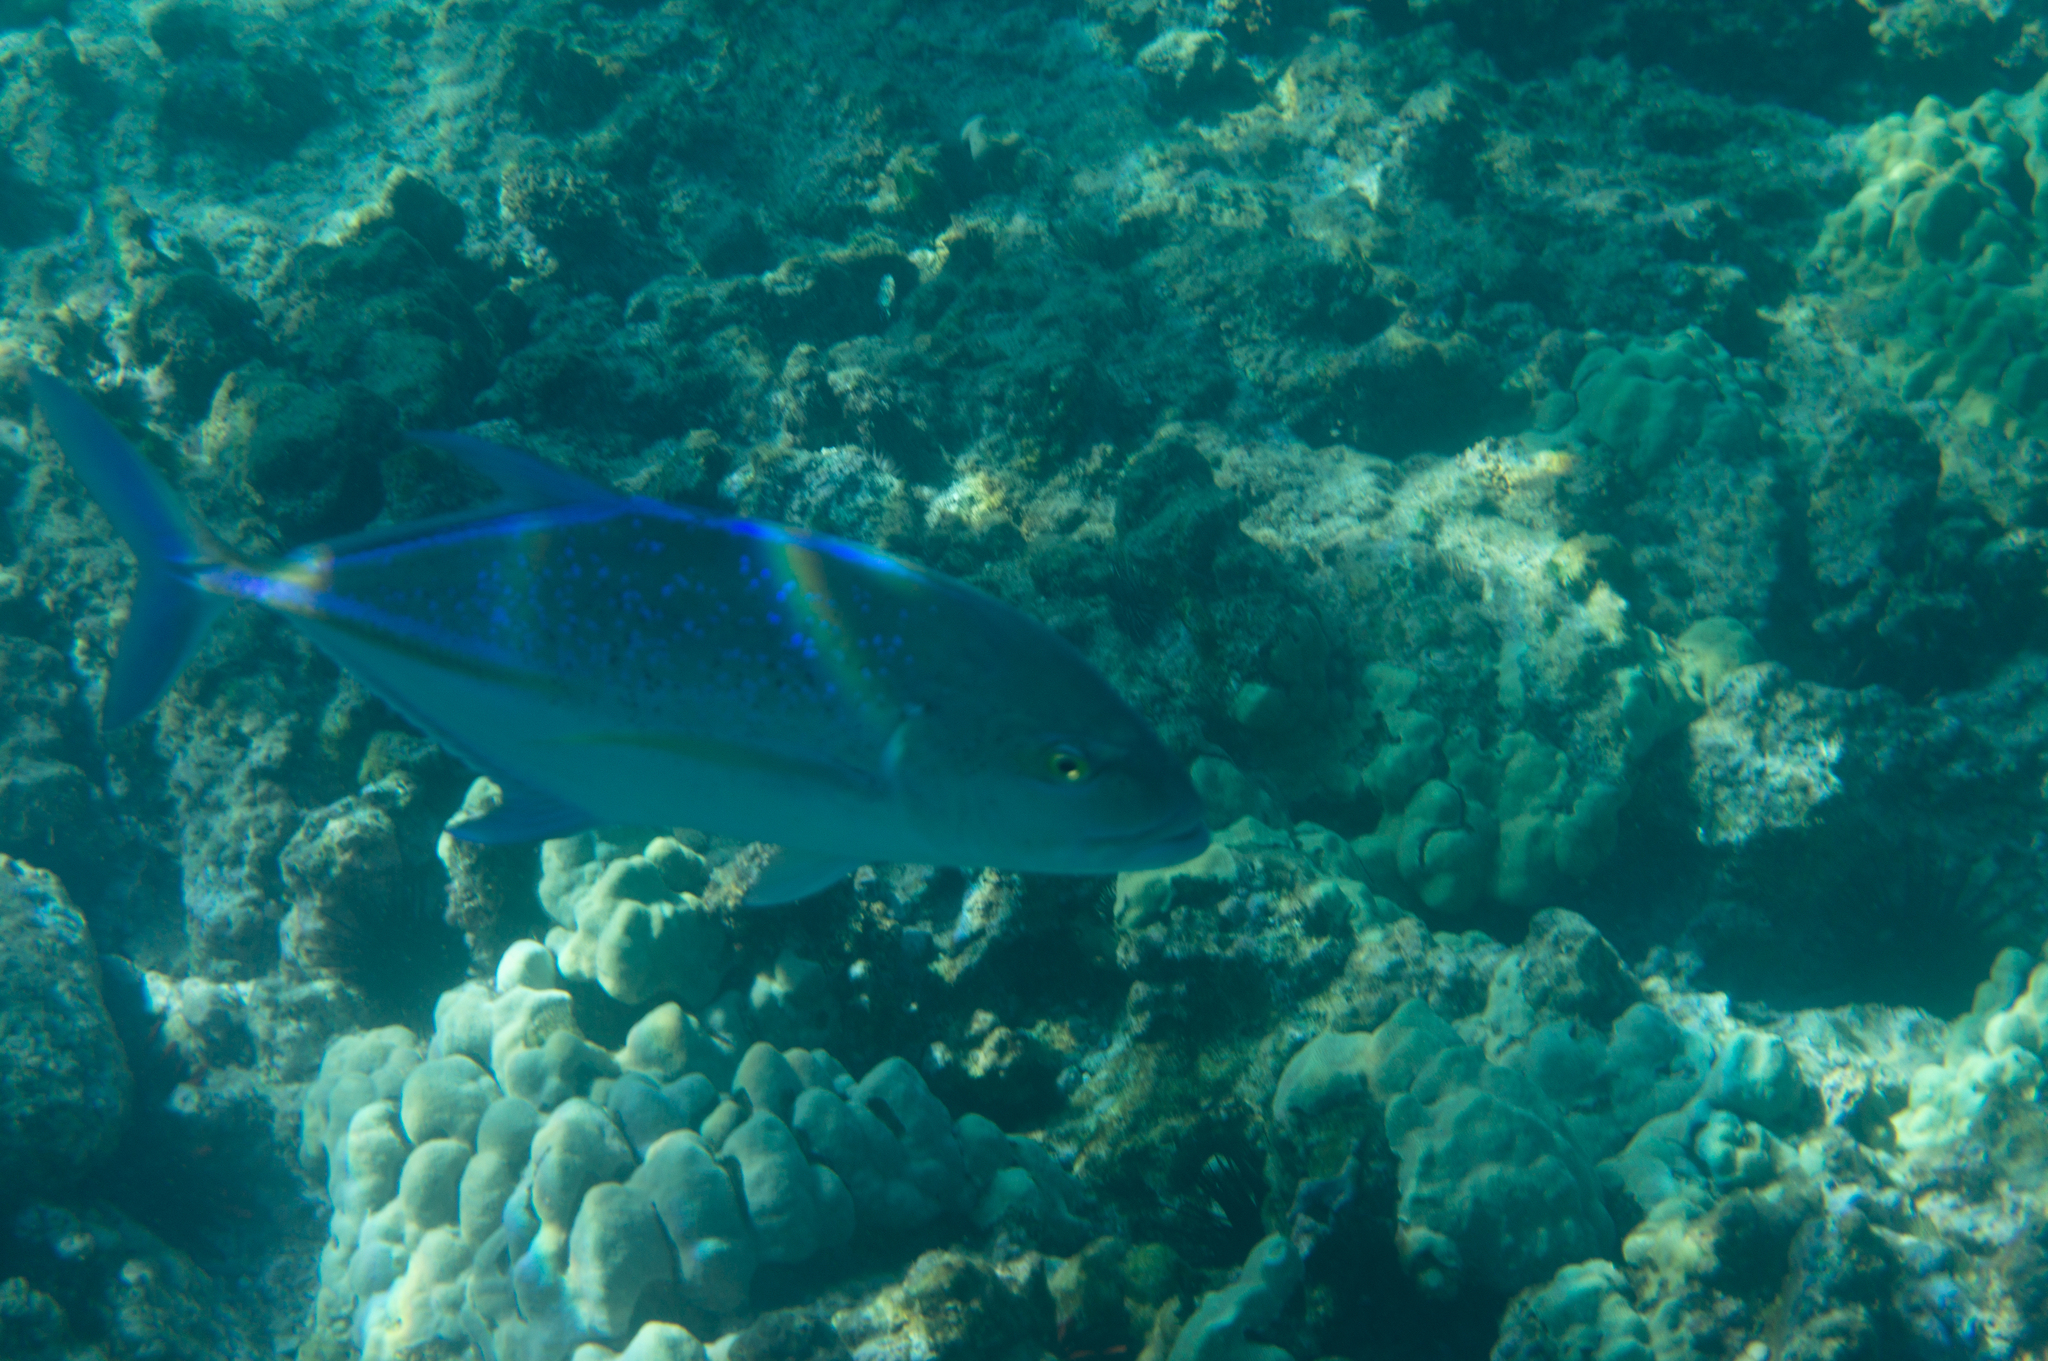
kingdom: Animalia
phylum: Chordata
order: Perciformes
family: Carangidae
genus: Caranx
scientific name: Caranx melampygus
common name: Bluefin trevally
